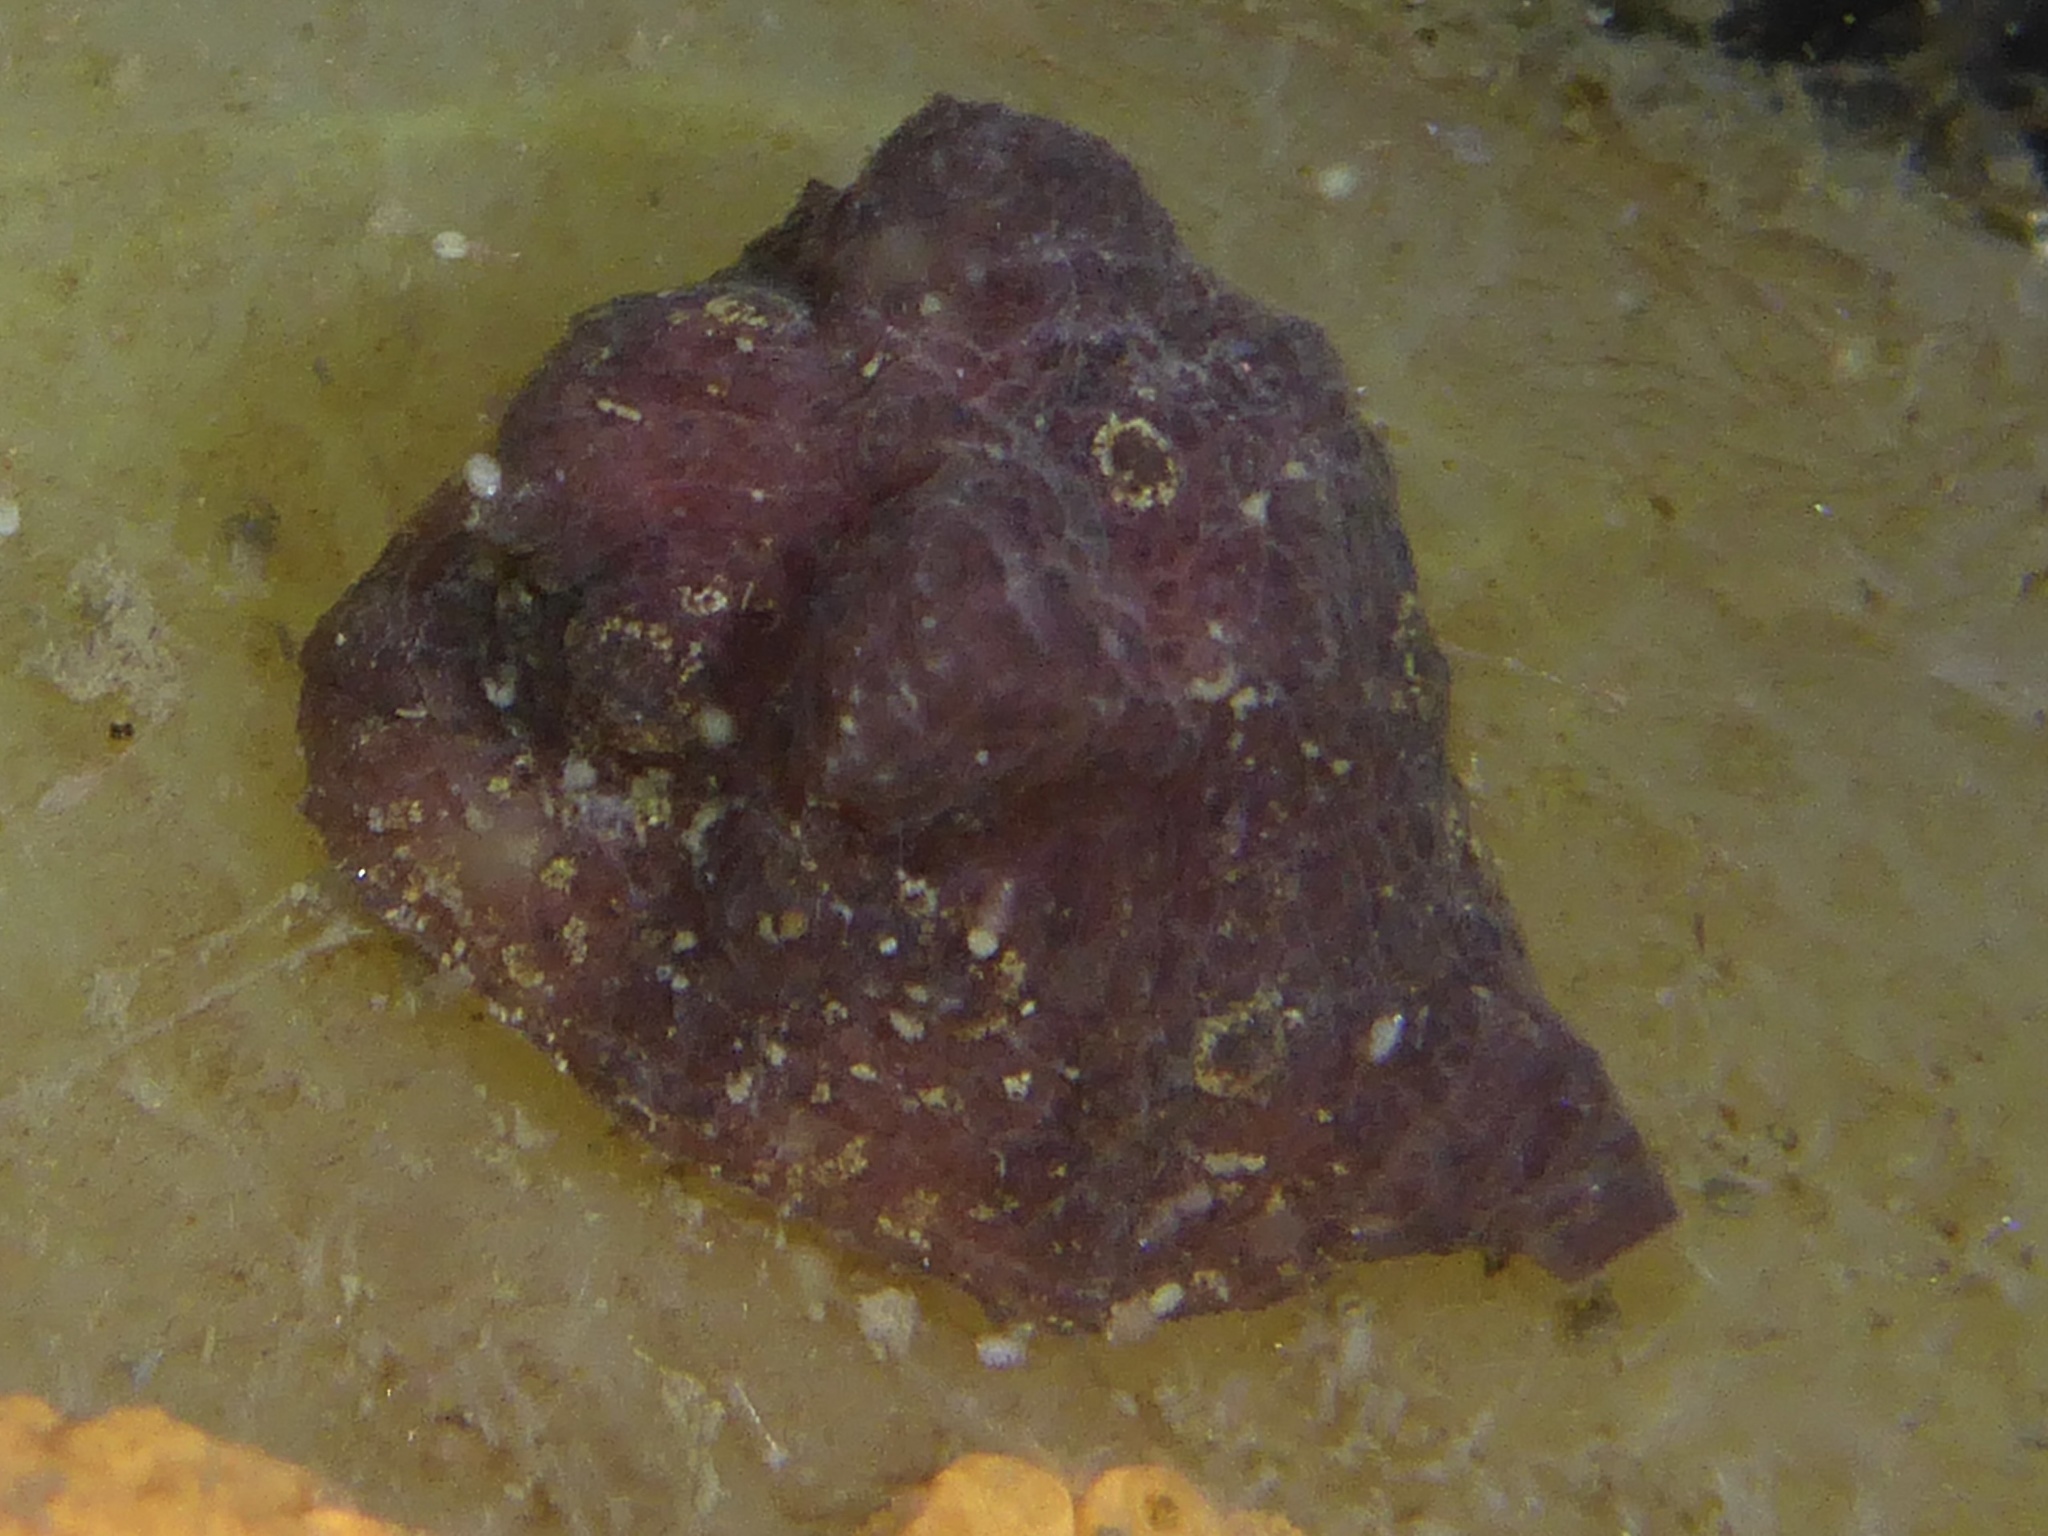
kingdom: Animalia
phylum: Mollusca
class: Gastropoda
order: Littorinimorpha
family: Velutinidae
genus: Hainotis
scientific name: Hainotis sharonae
